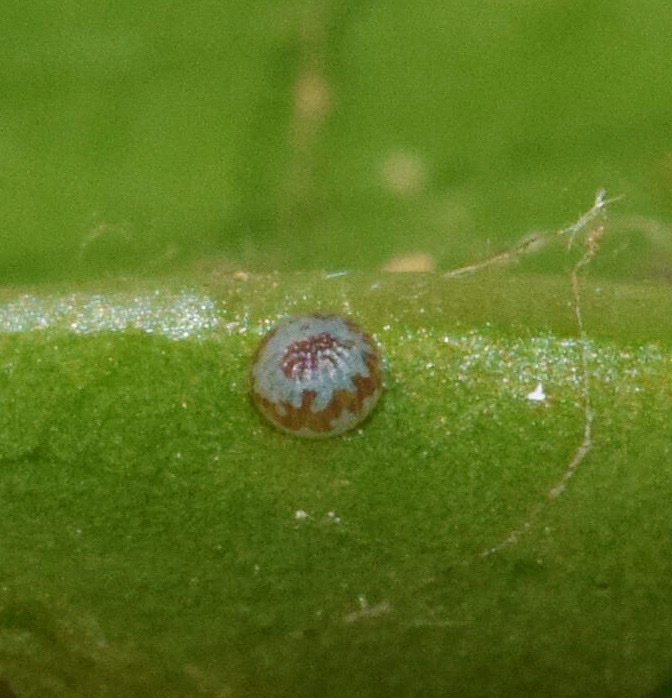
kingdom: Animalia
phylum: Arthropoda
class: Insecta
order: Lepidoptera
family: Erebidae
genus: Achaea
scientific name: Achaea klugii
